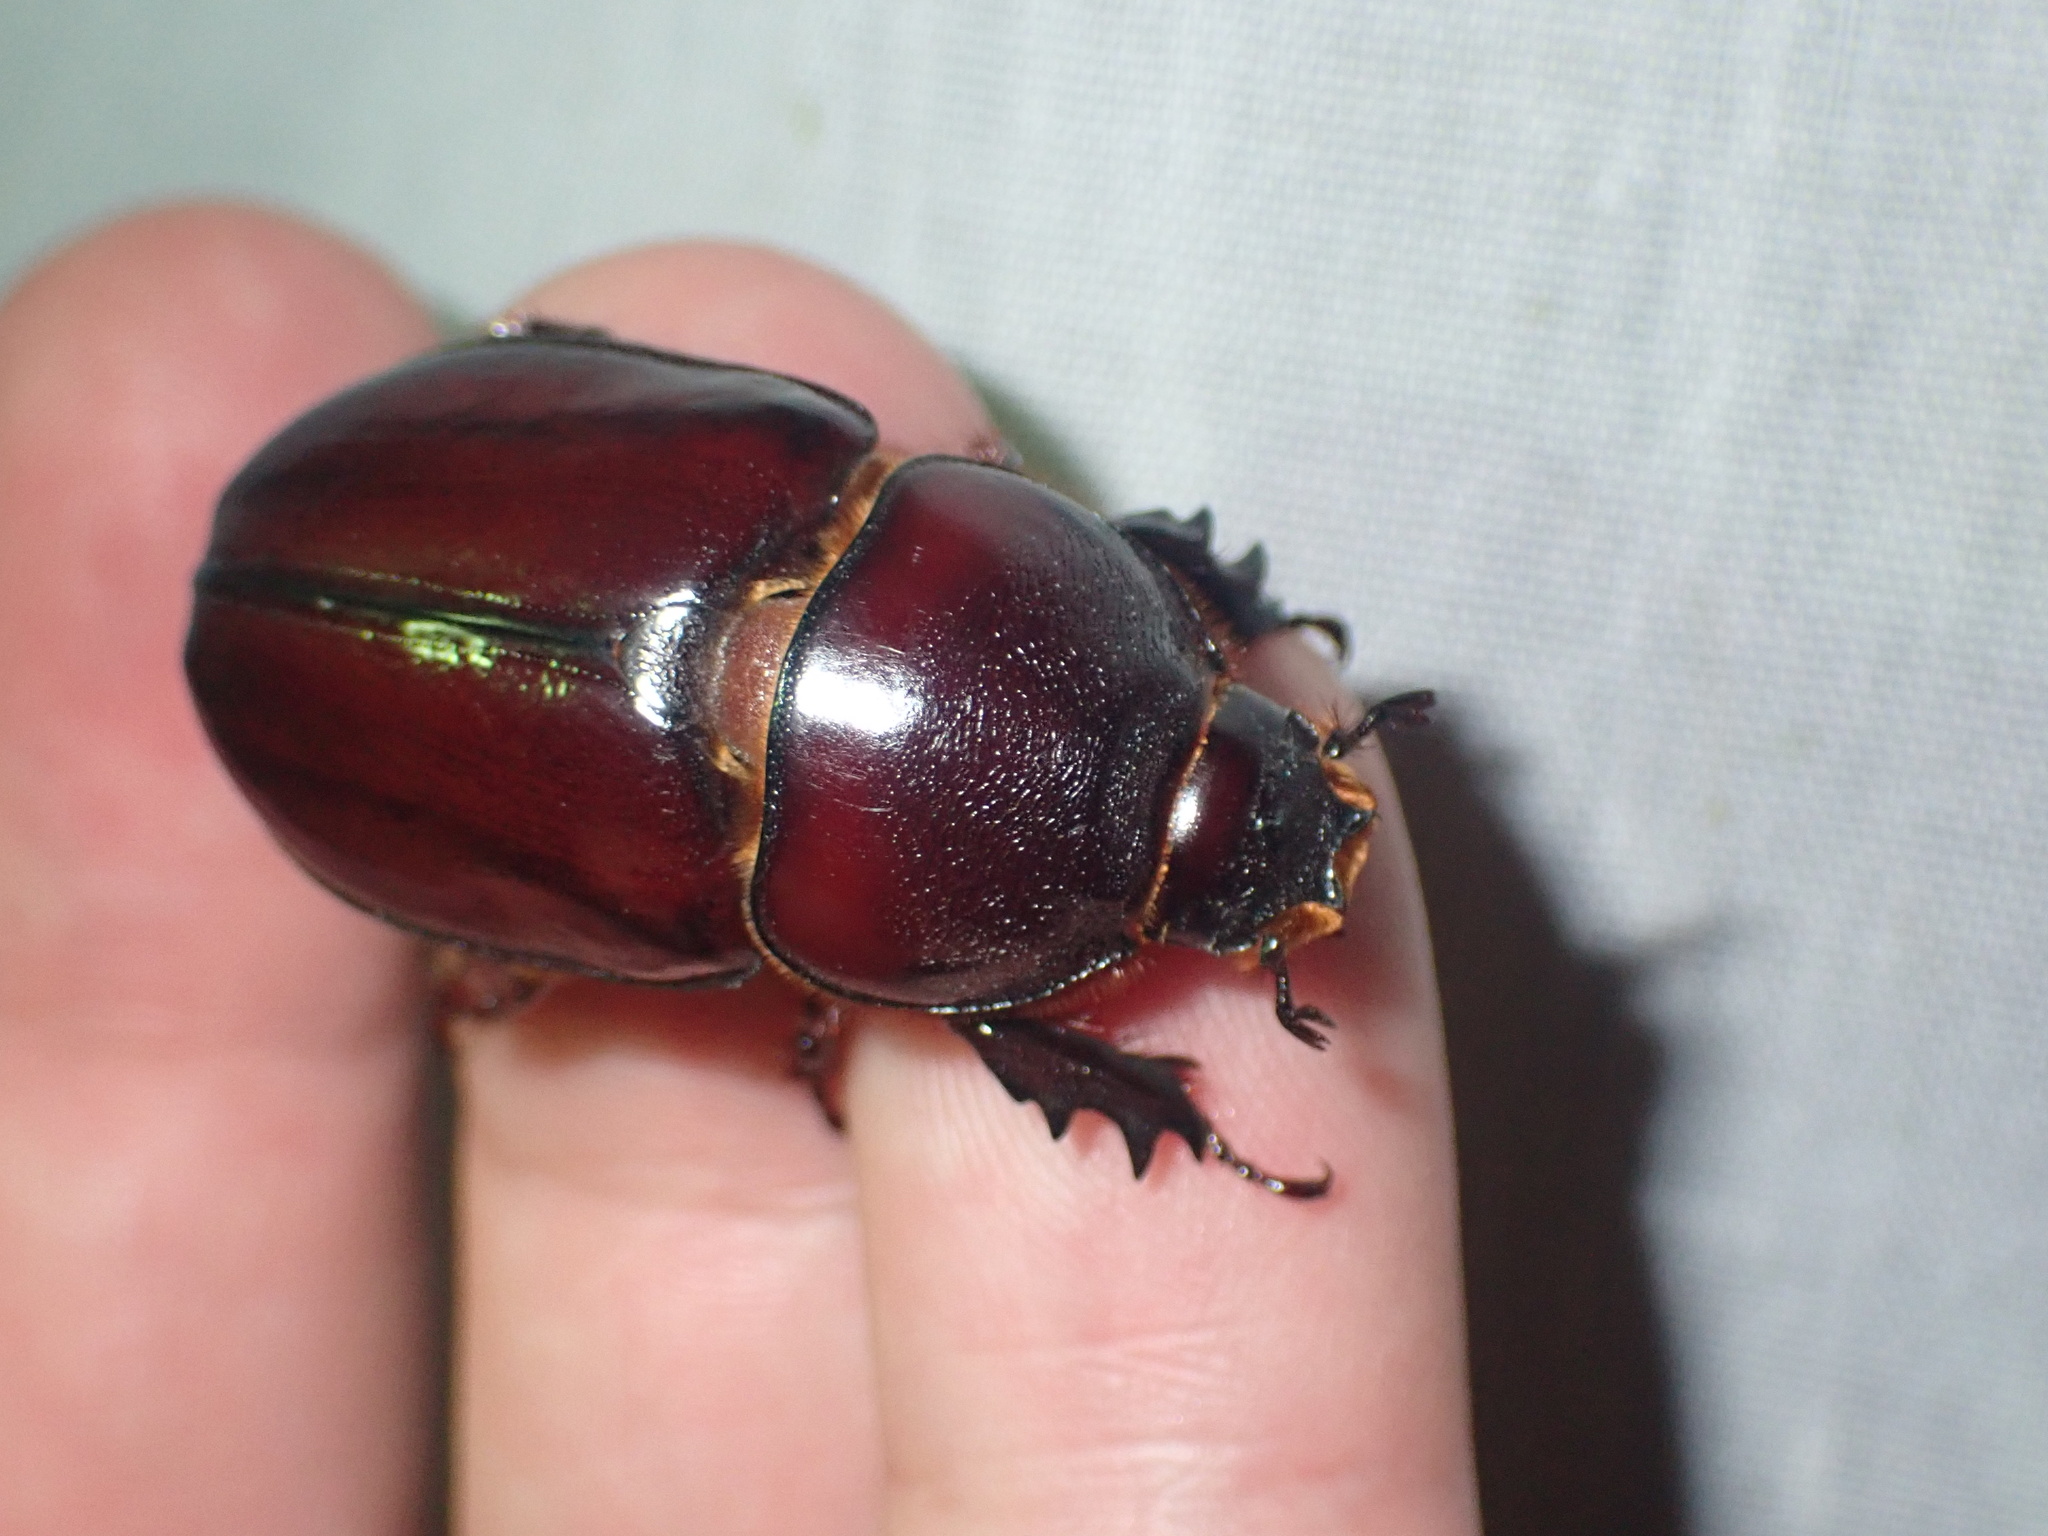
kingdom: Animalia
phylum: Arthropoda
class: Insecta
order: Coleoptera
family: Scarabaeidae
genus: Oryctes
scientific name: Oryctes boas
